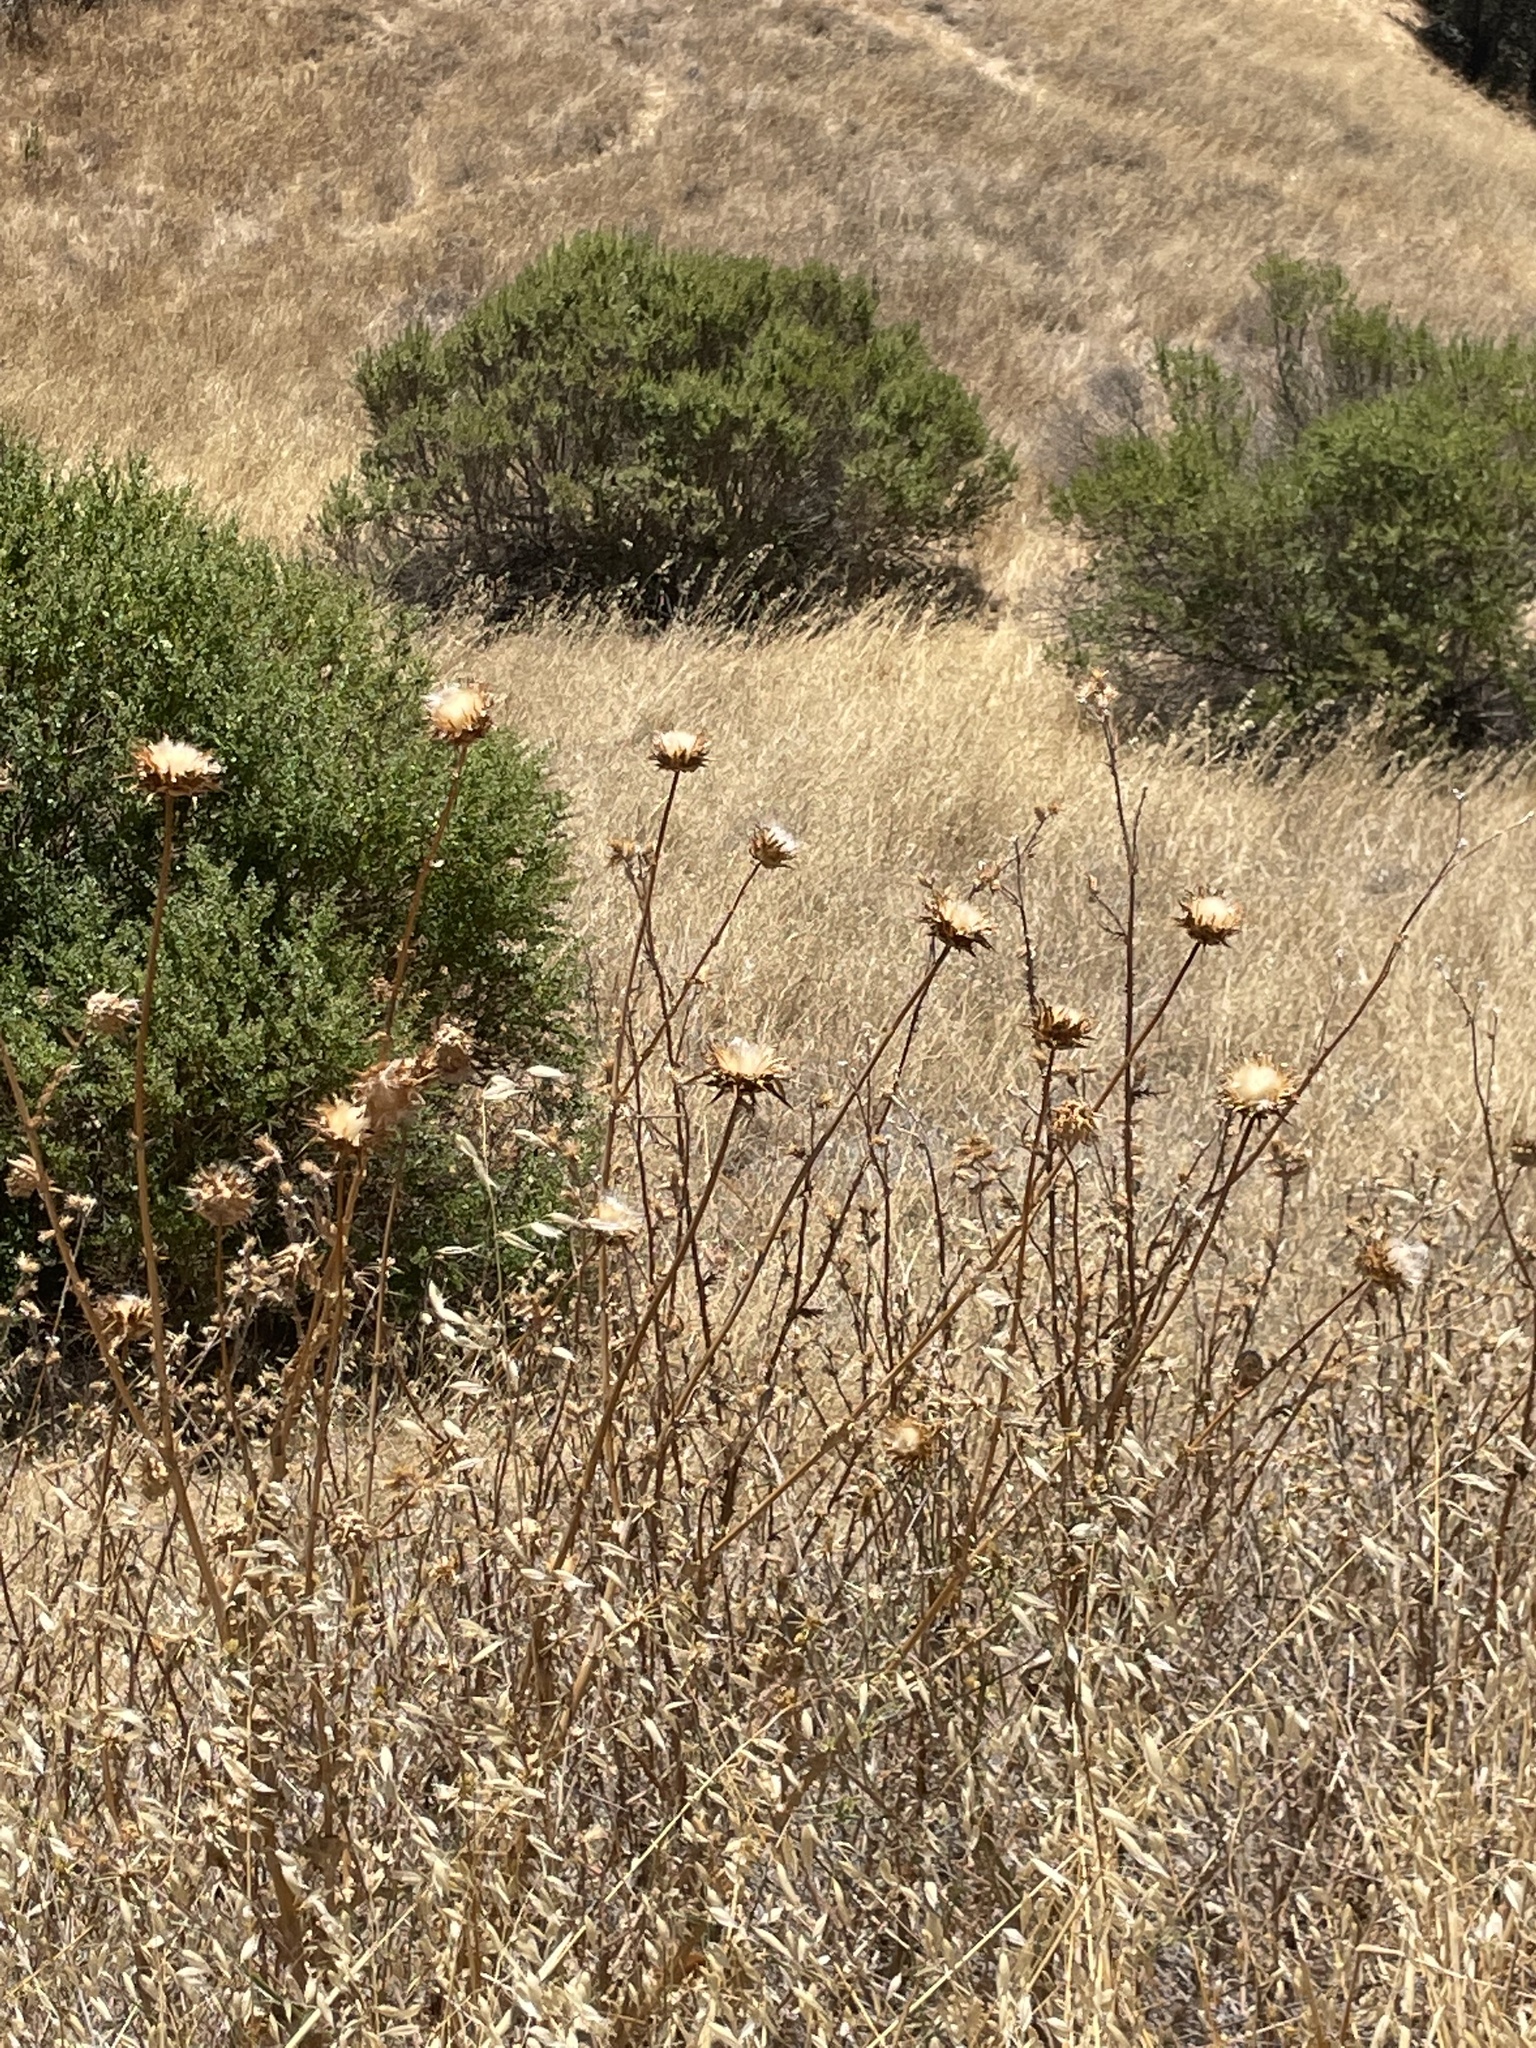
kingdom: Plantae
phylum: Tracheophyta
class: Magnoliopsida
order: Asterales
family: Asteraceae
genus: Silybum
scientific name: Silybum marianum
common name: Milk thistle
